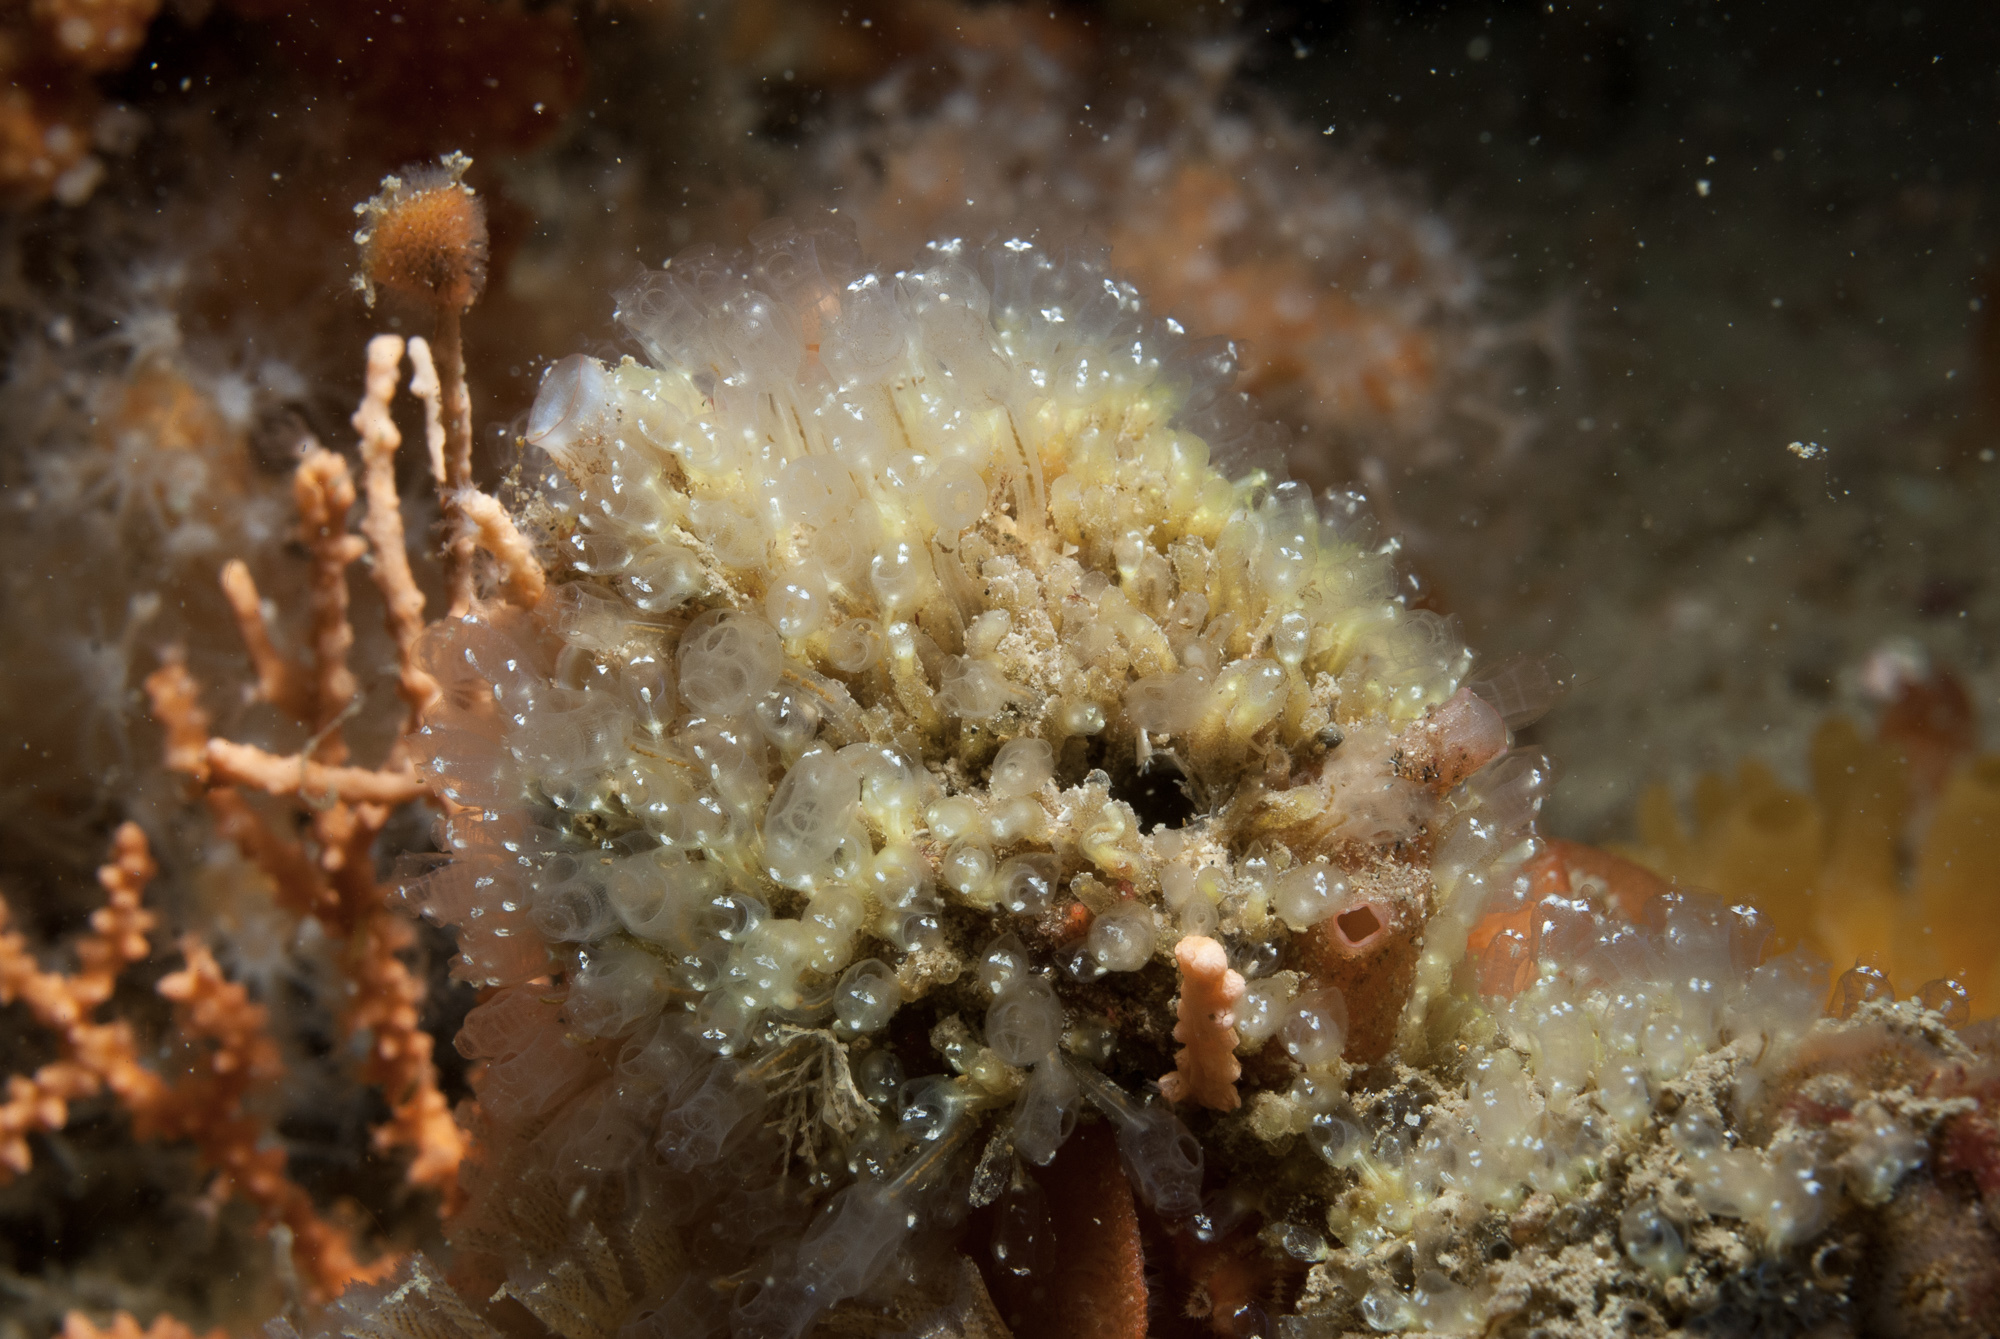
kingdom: Animalia
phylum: Chordata
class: Ascidiacea
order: Aplousobranchia
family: Clavelinidae
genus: Pycnoclavella
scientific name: Pycnoclavella aurilucens
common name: Orange lights seasquirt
